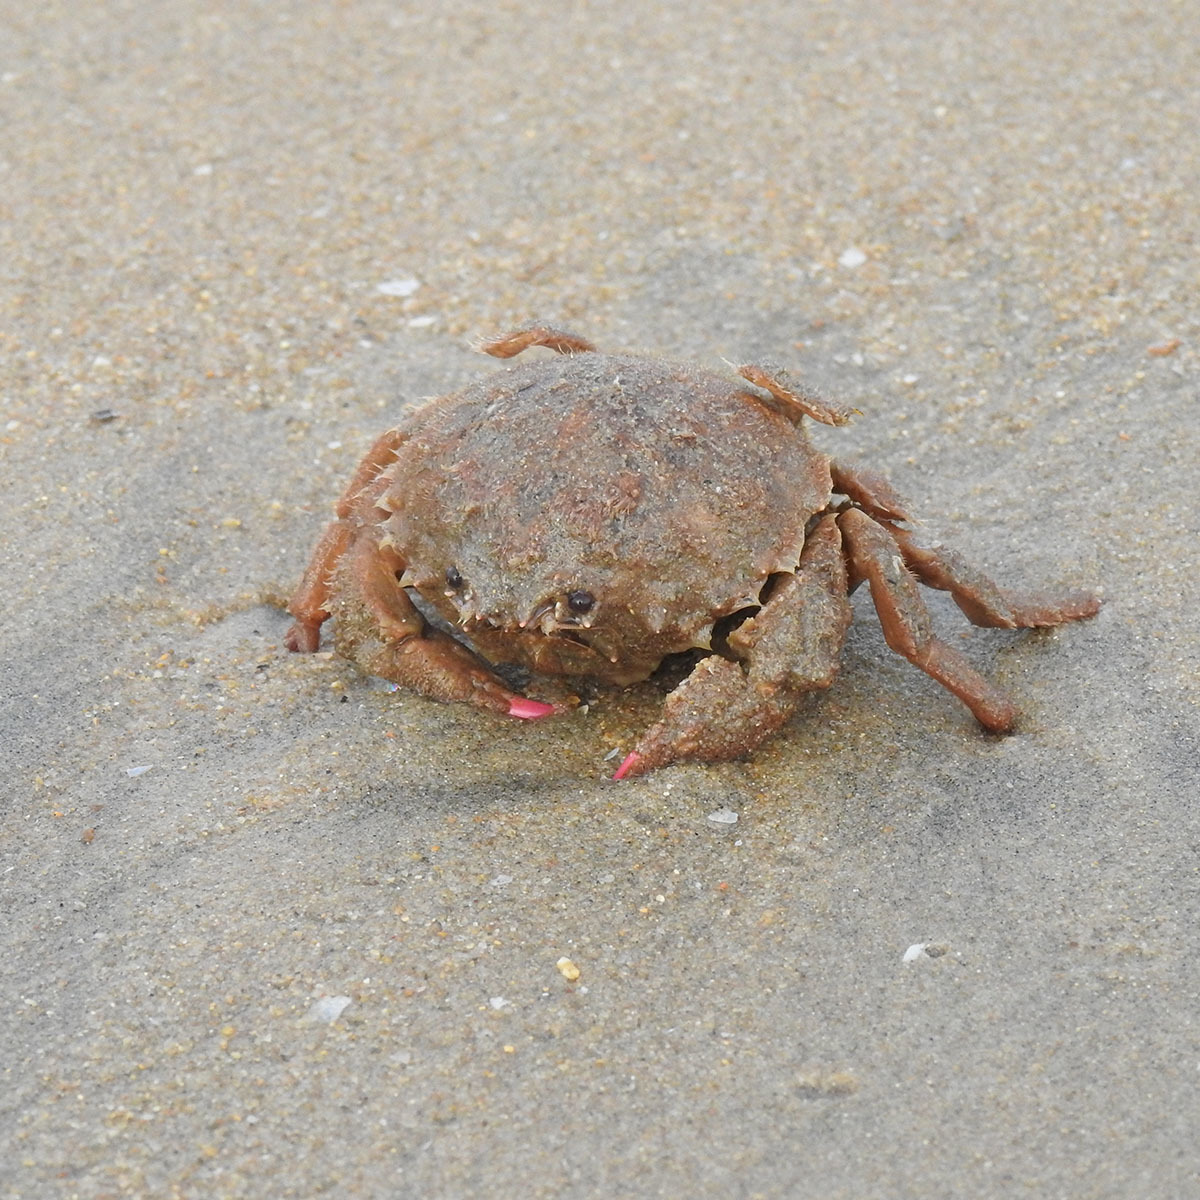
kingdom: Animalia
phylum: Arthropoda
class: Malacostraca
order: Decapoda
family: Dromiidae
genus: Lauridromia
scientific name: Lauridromia dehaani
